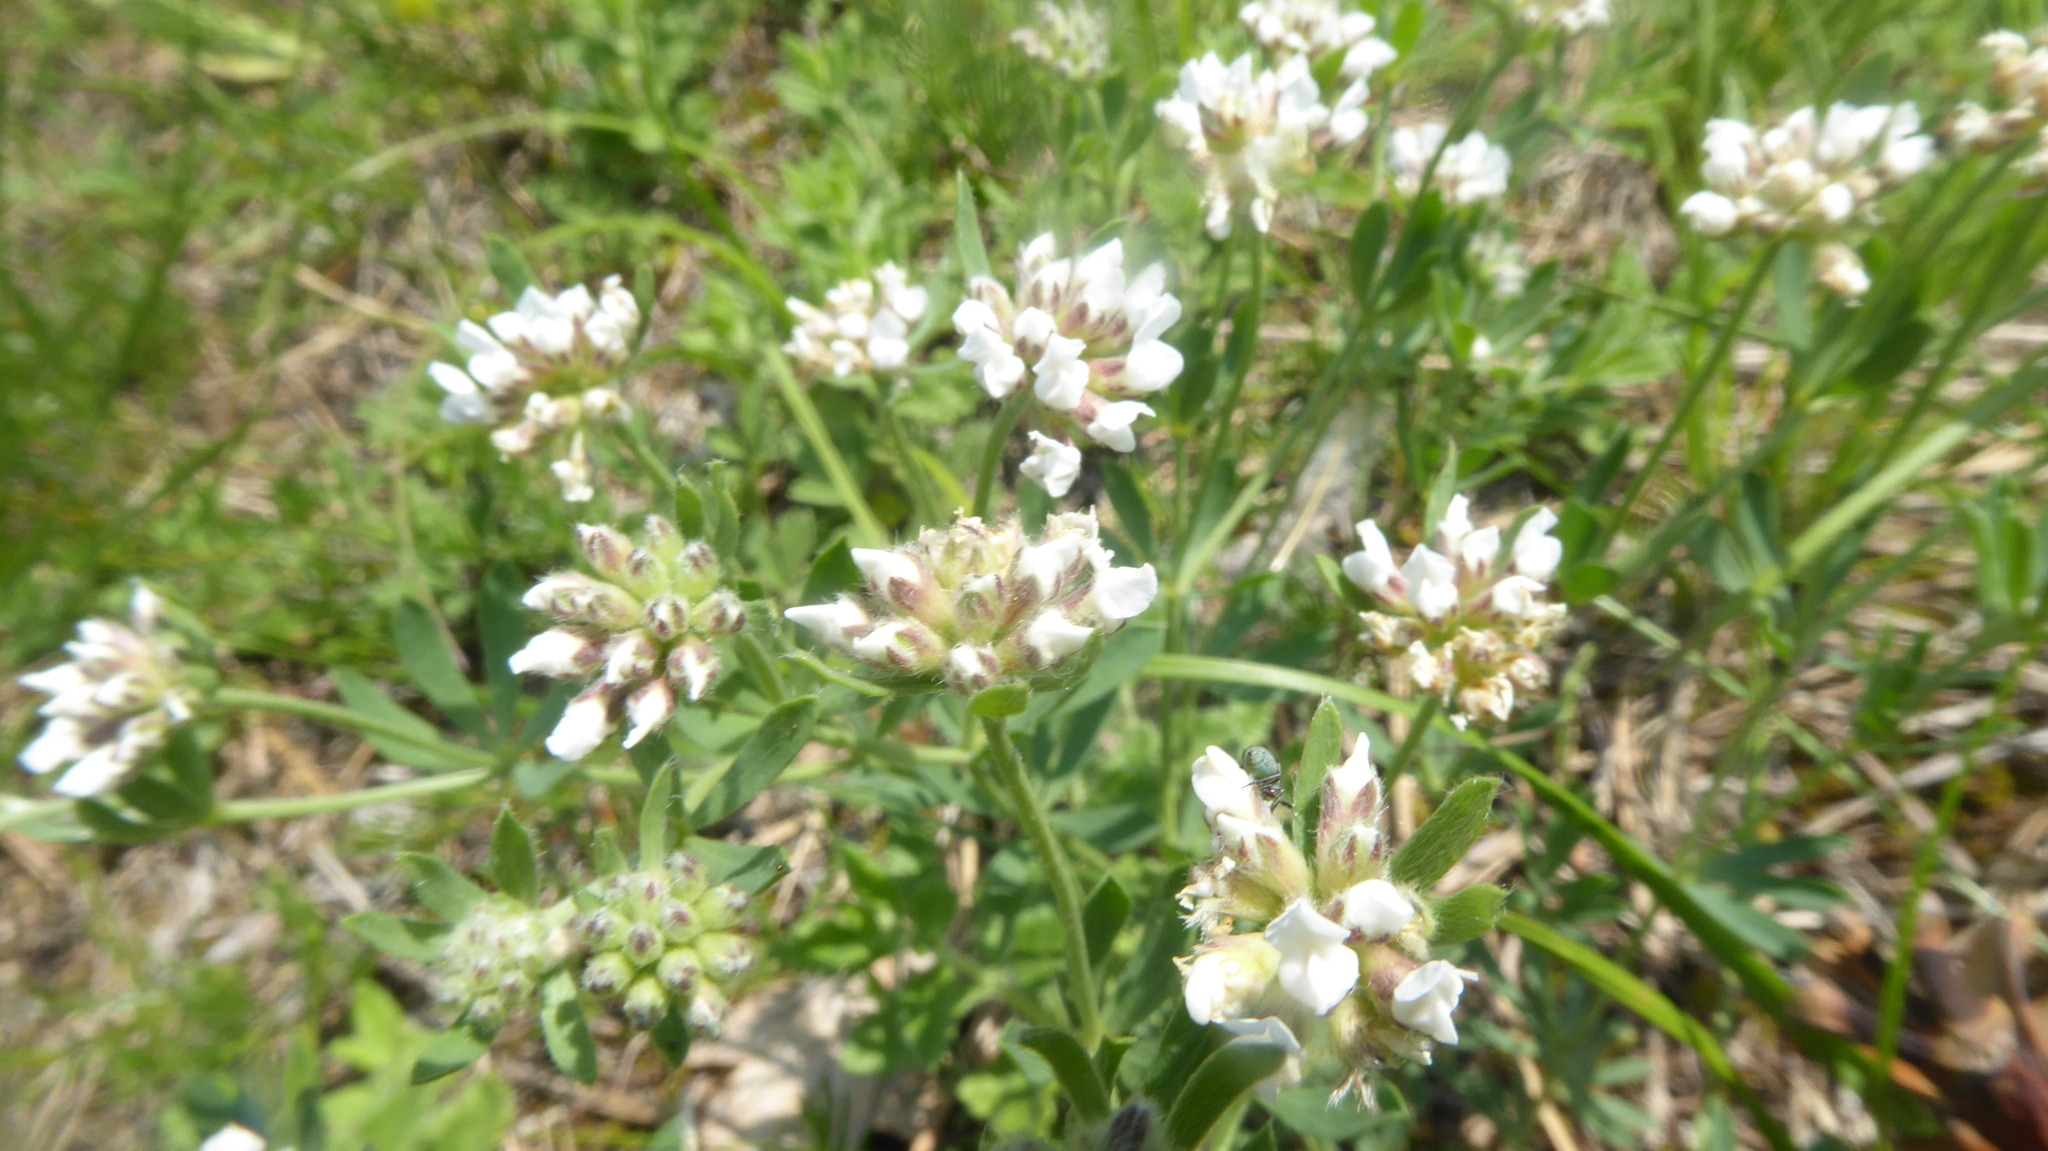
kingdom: Plantae
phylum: Tracheophyta
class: Magnoliopsida
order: Fabales
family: Fabaceae
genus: Lotus
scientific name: Lotus germanicus
